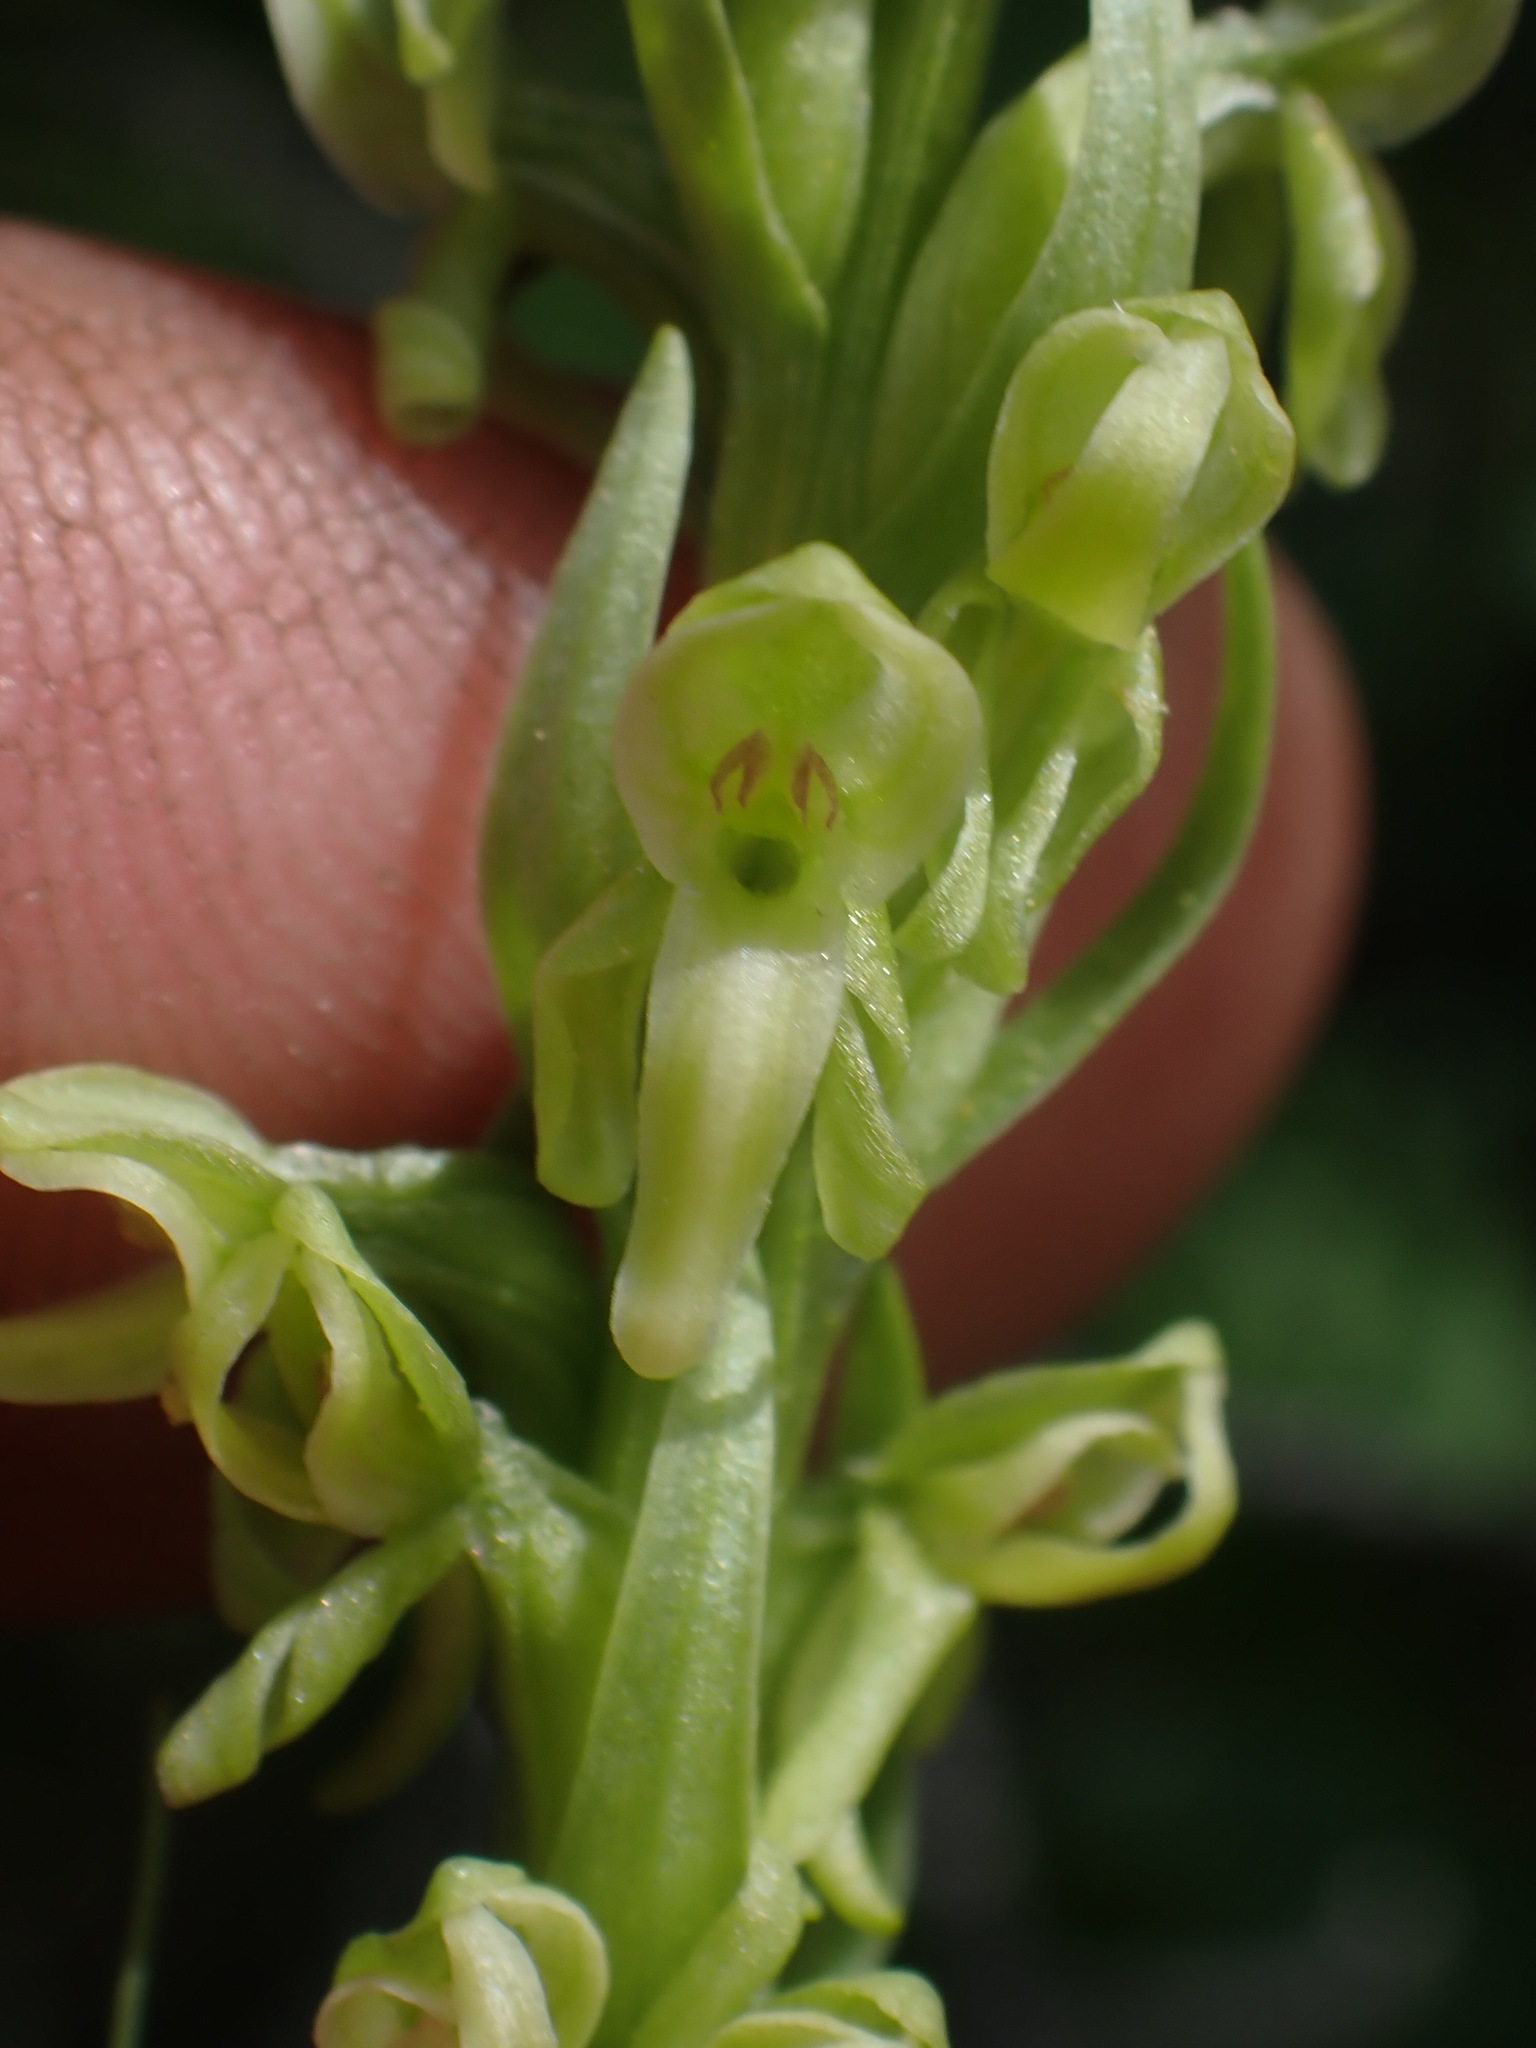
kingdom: Plantae
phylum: Tracheophyta
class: Liliopsida
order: Asparagales
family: Orchidaceae
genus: Platanthera
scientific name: Platanthera huronensis
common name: Fragrant green orchid
